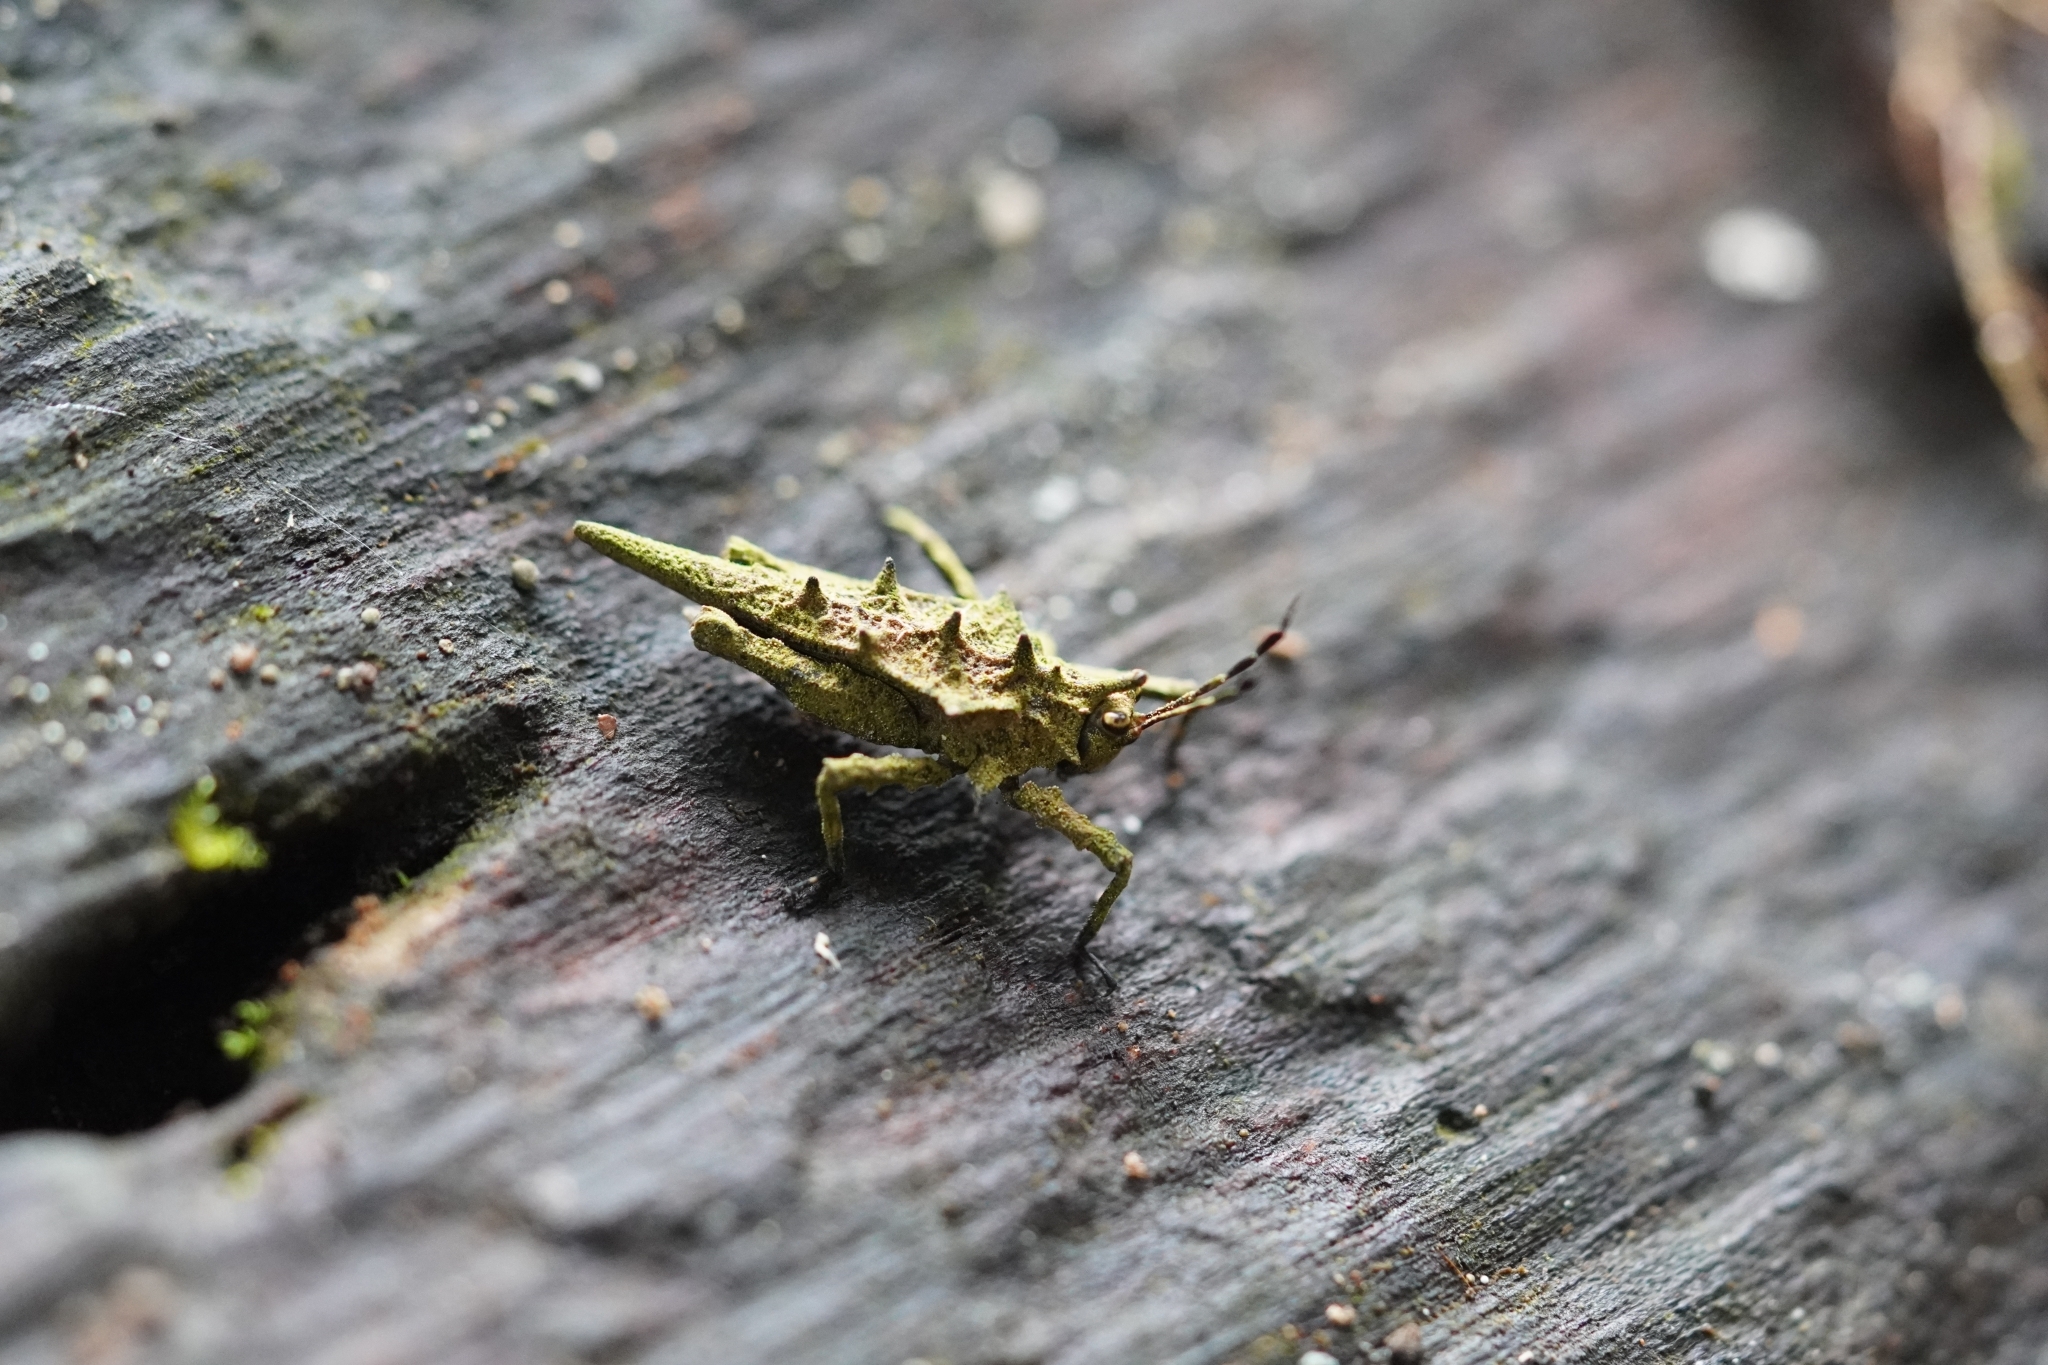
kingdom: Animalia
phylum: Arthropoda
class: Insecta
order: Orthoptera
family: Tetrigidae
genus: Discotettix
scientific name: Discotettix belzebuth
